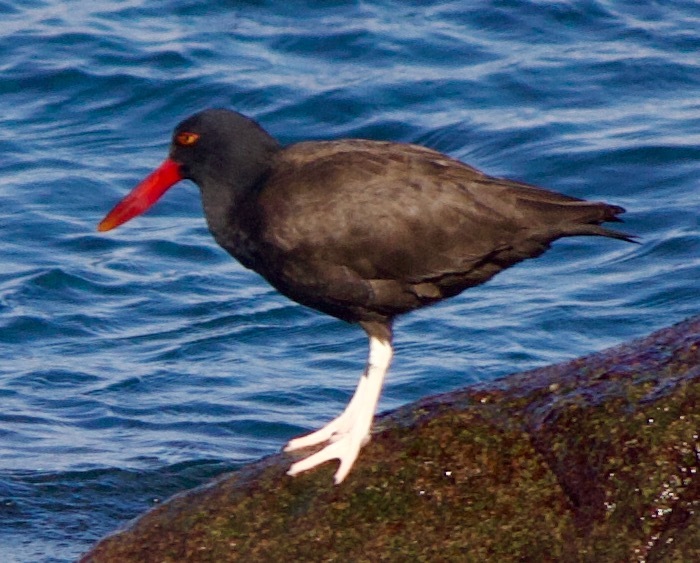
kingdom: Animalia
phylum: Chordata
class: Aves
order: Charadriiformes
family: Haematopodidae
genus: Haematopus
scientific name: Haematopus ater
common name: Blackish oystercatcher
